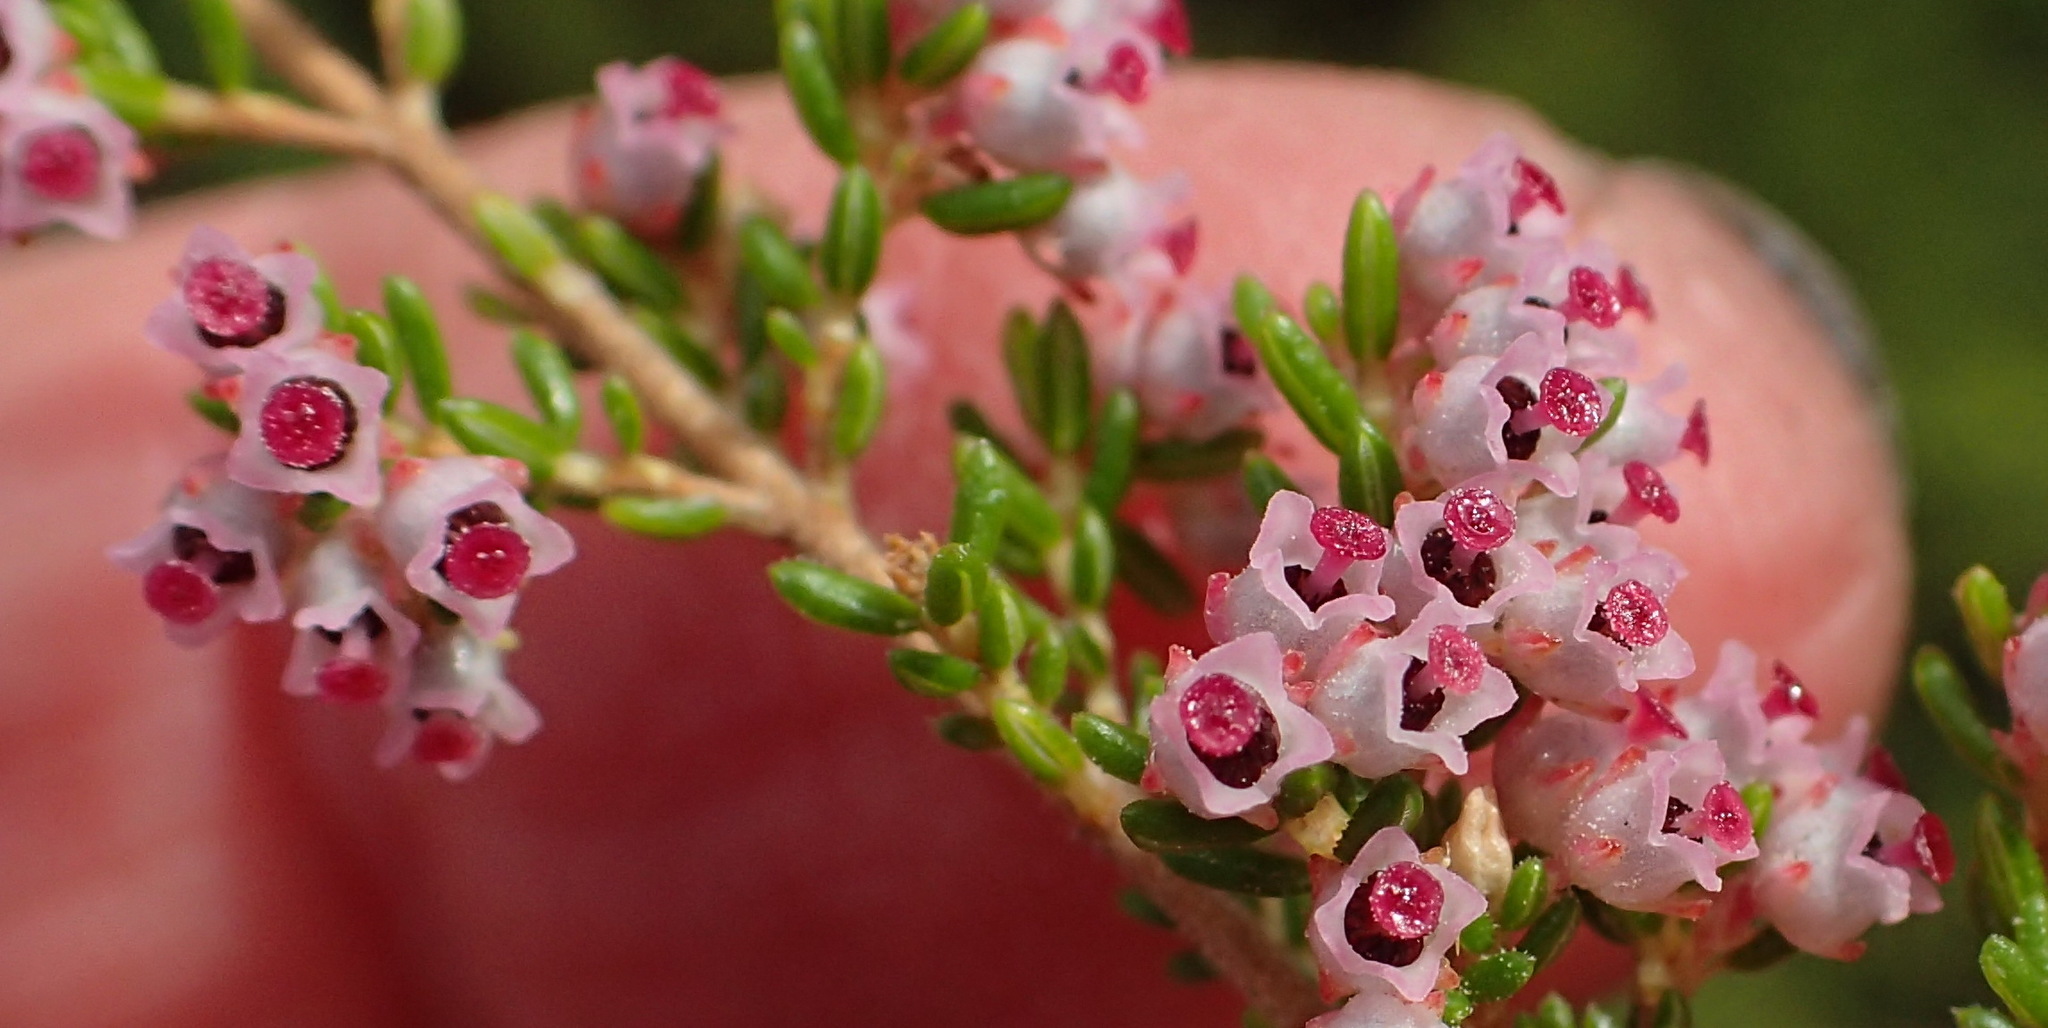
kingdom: Plantae
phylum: Tracheophyta
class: Magnoliopsida
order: Ericales
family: Ericaceae
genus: Erica
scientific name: Erica peltata
